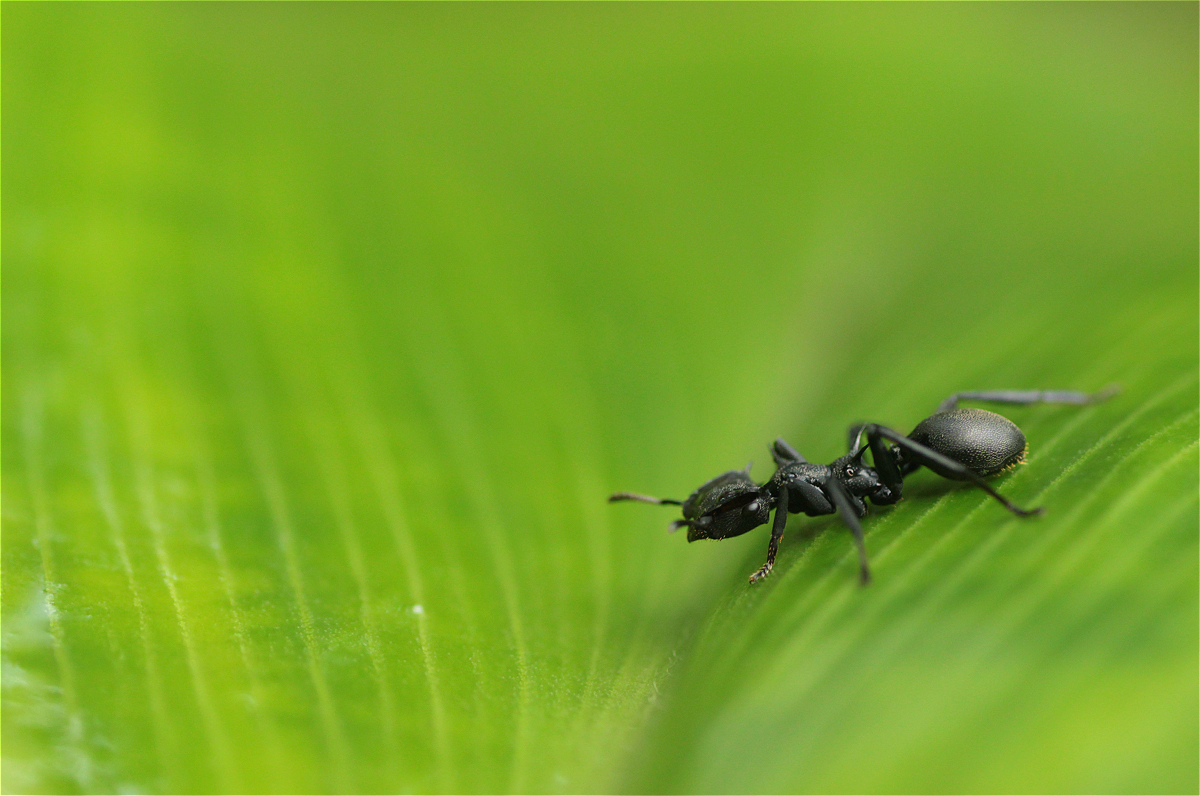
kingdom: Animalia
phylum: Arthropoda
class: Insecta
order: Hymenoptera
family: Formicidae
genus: Cephalotes
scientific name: Cephalotes atratus
